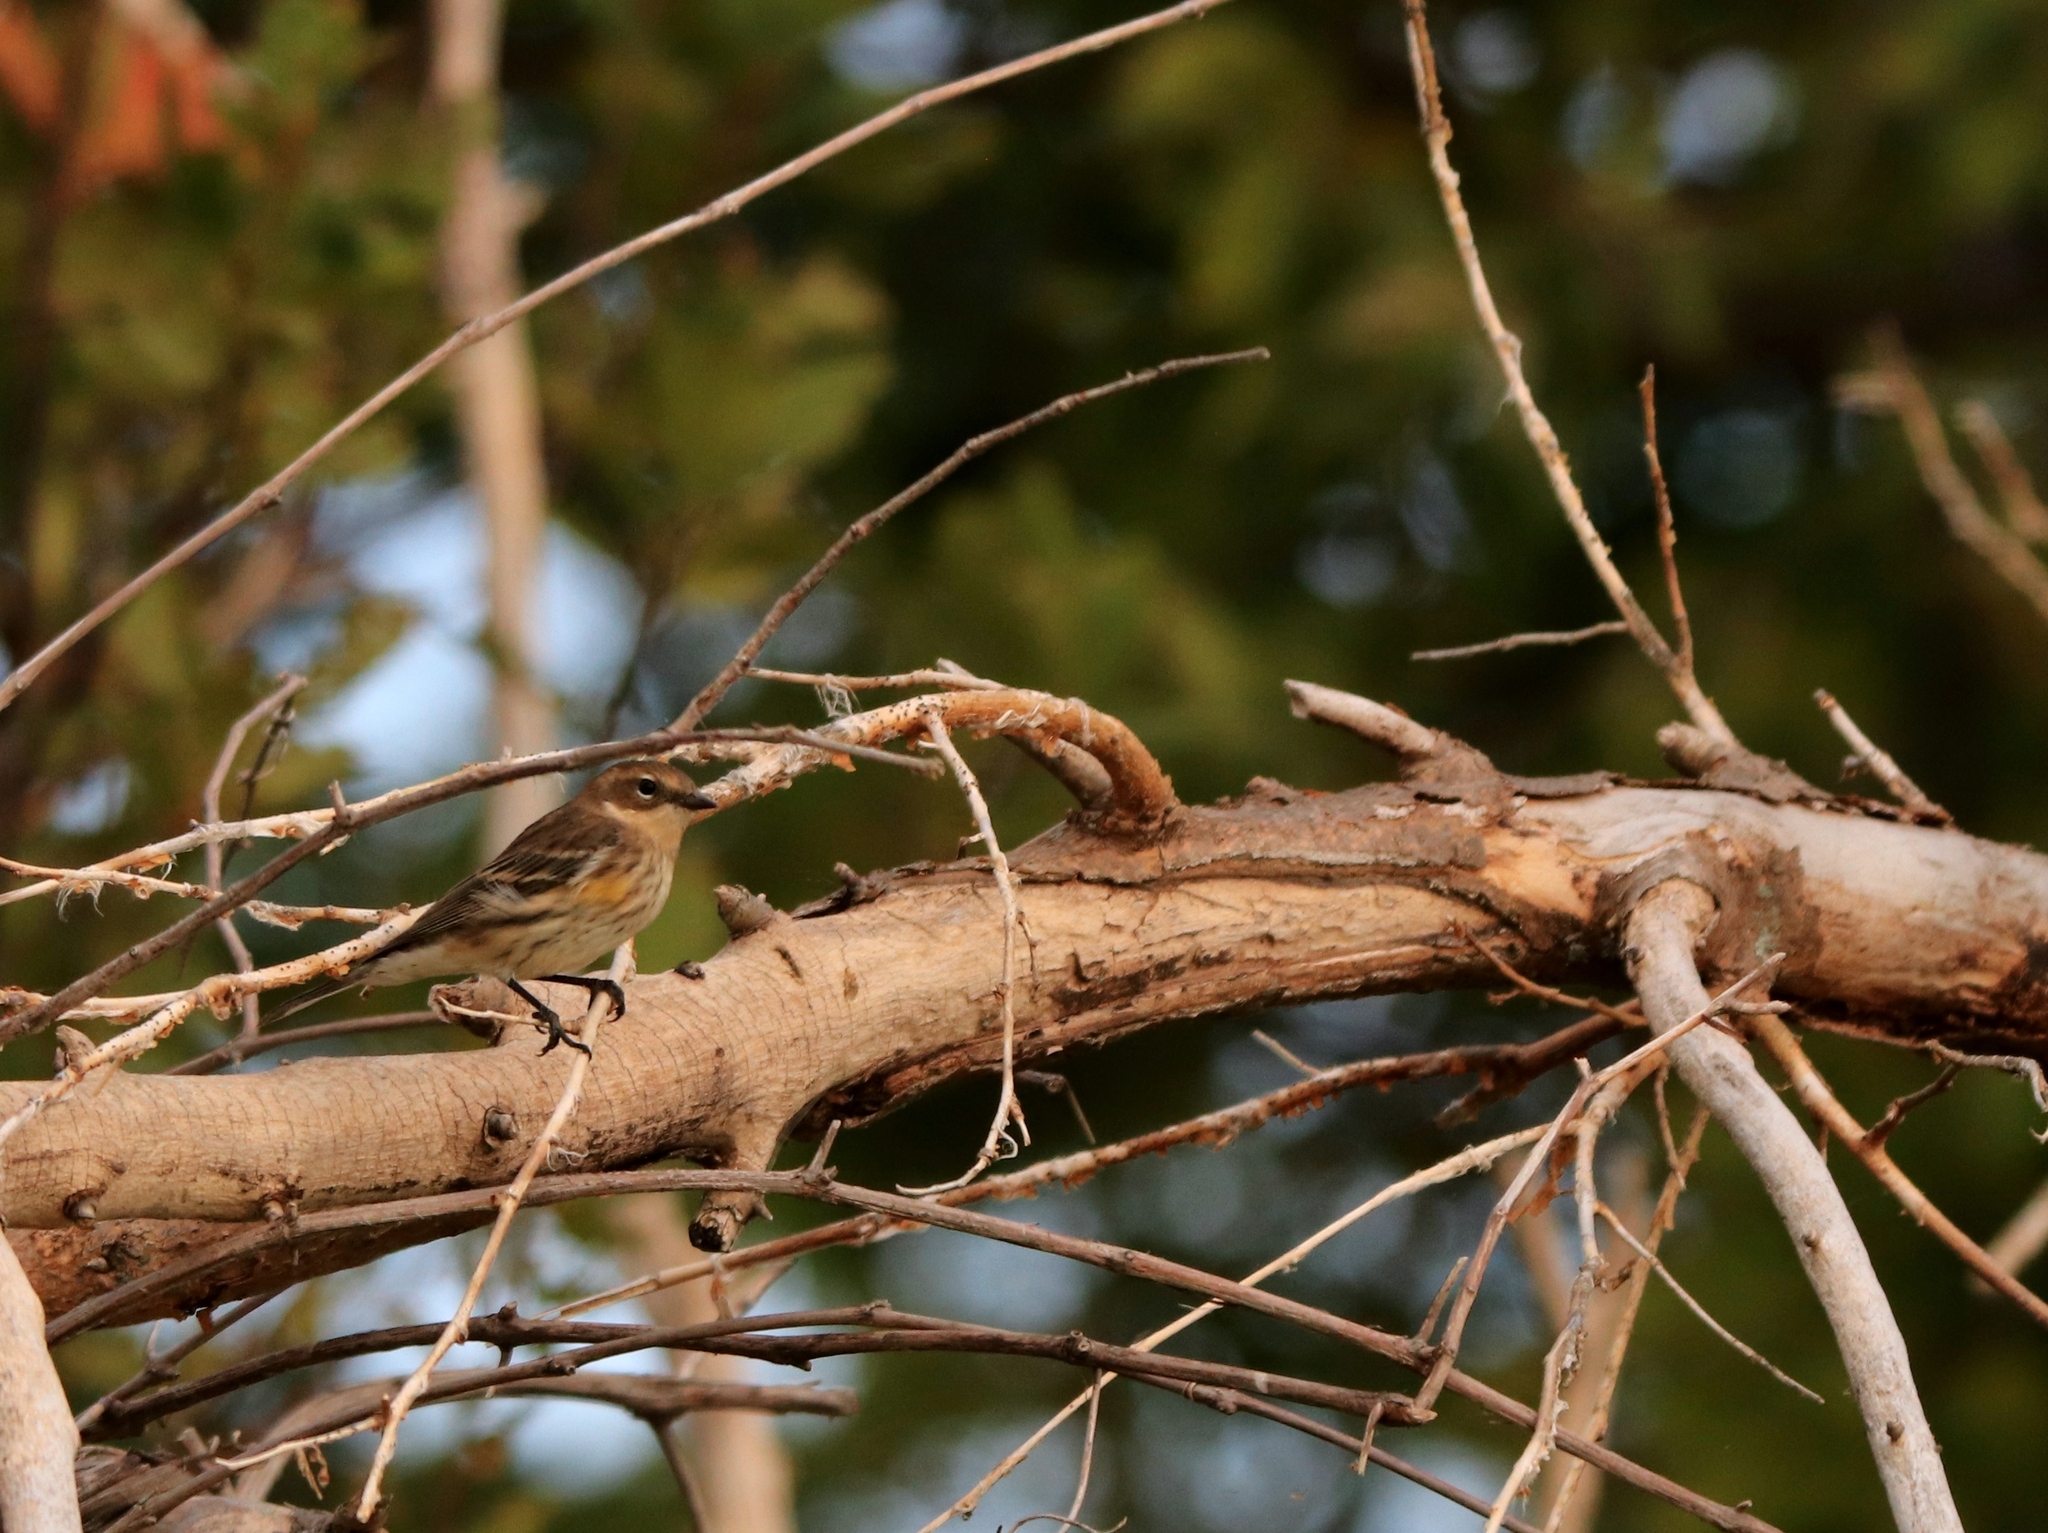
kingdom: Animalia
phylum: Chordata
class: Aves
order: Passeriformes
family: Parulidae
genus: Setophaga
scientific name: Setophaga coronata
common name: Myrtle warbler
